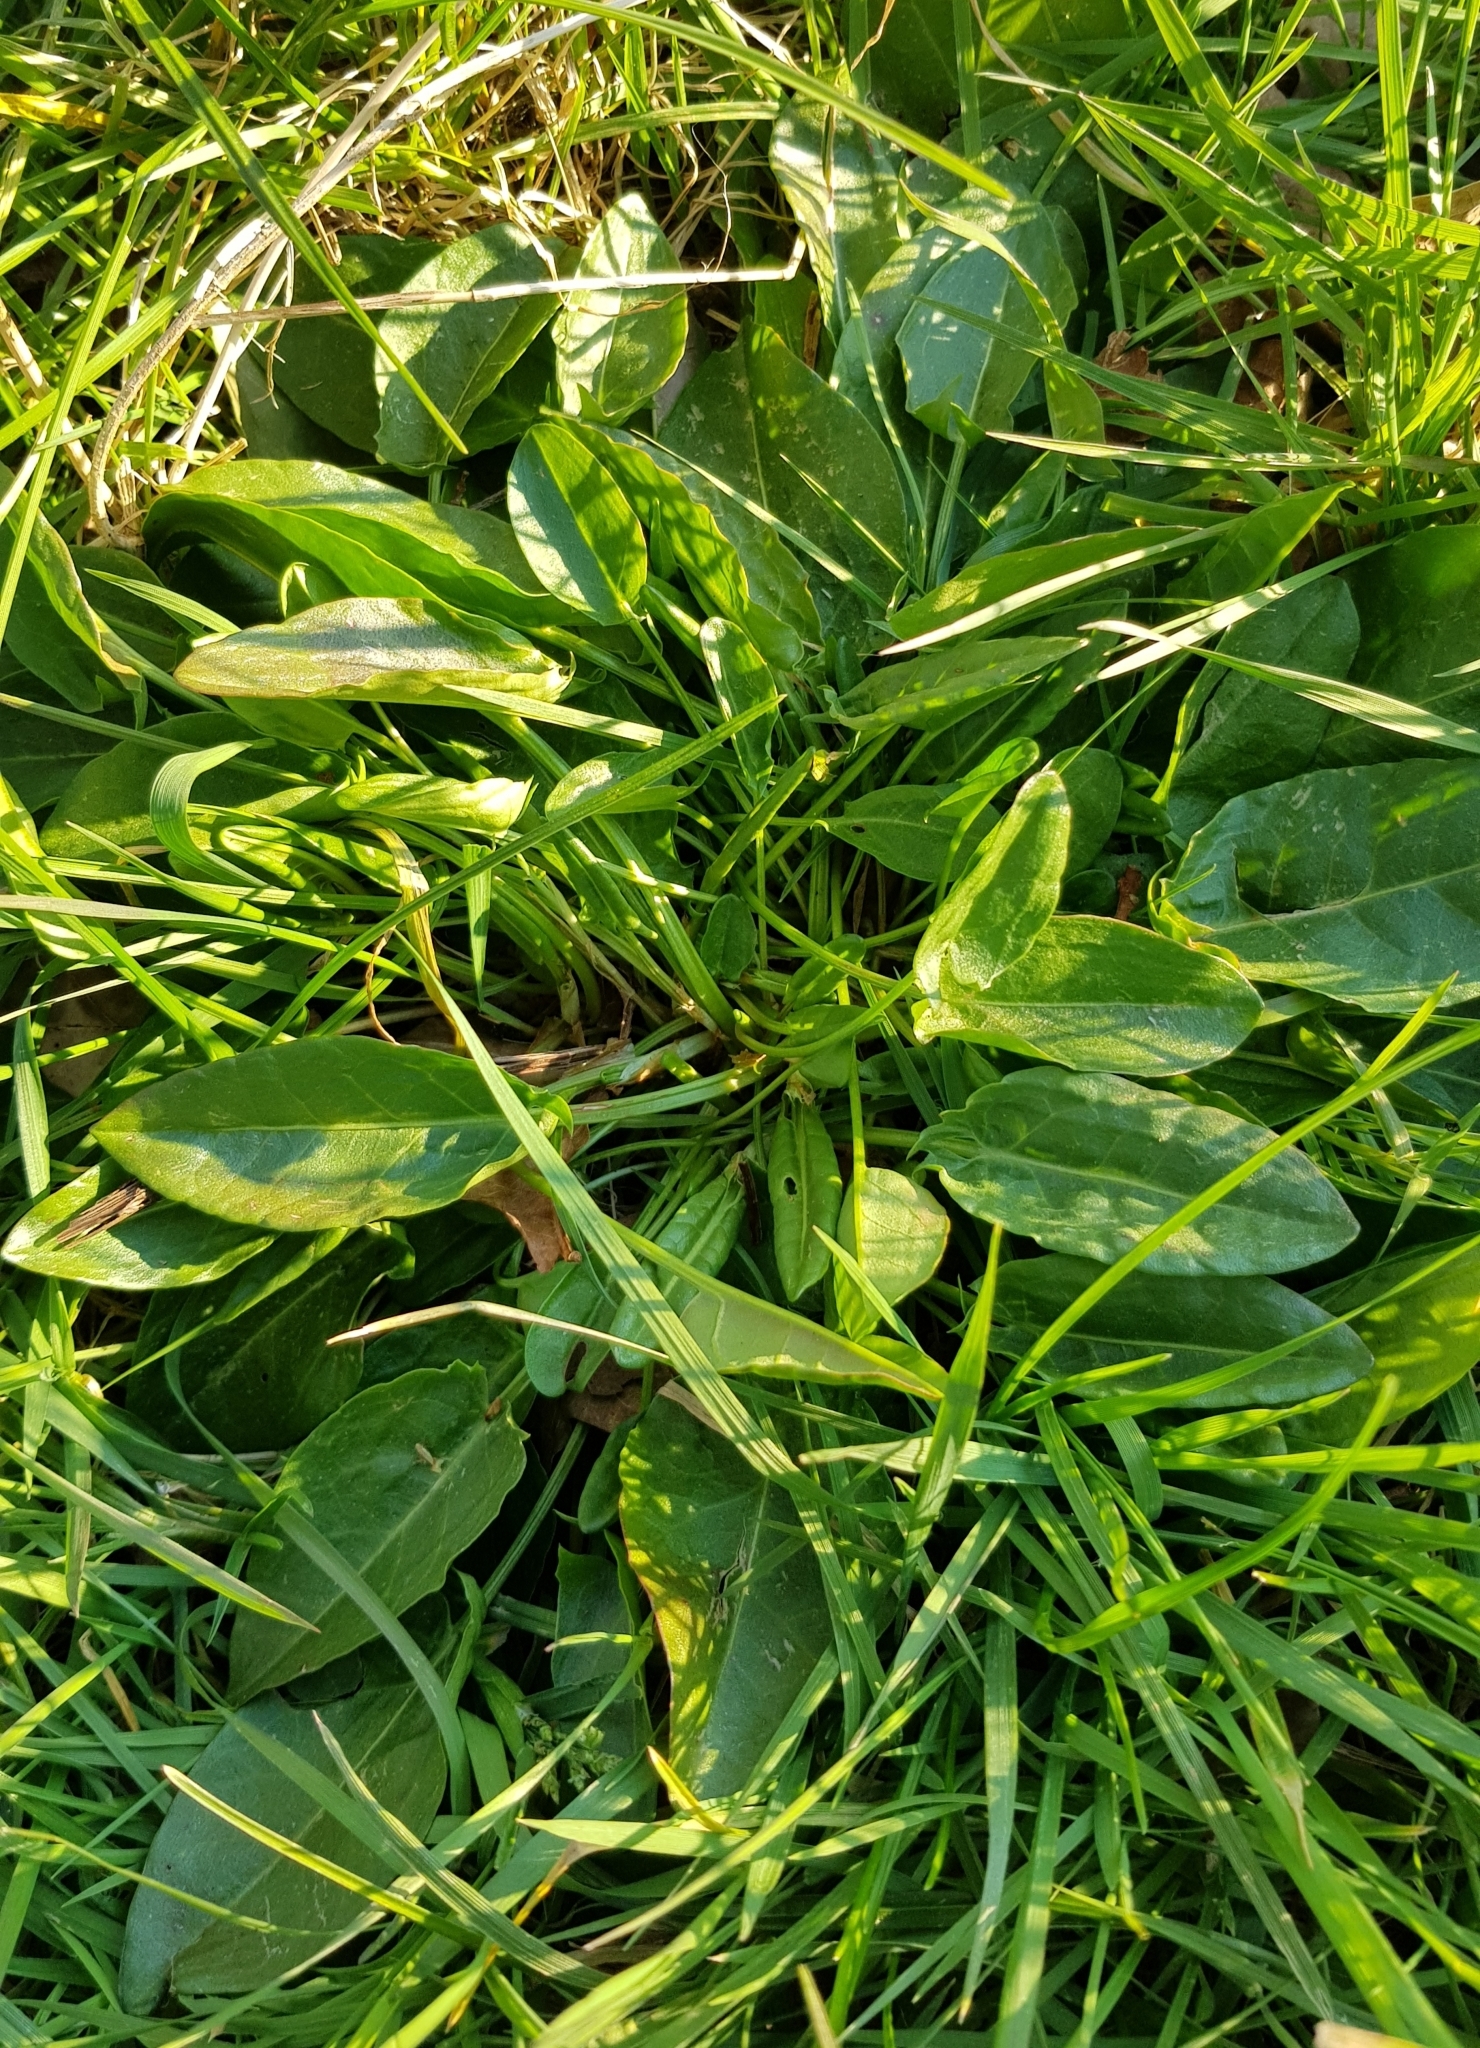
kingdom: Plantae
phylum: Tracheophyta
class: Magnoliopsida
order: Caryophyllales
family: Polygonaceae
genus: Rumex
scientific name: Rumex acetosa
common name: Garden sorrel
